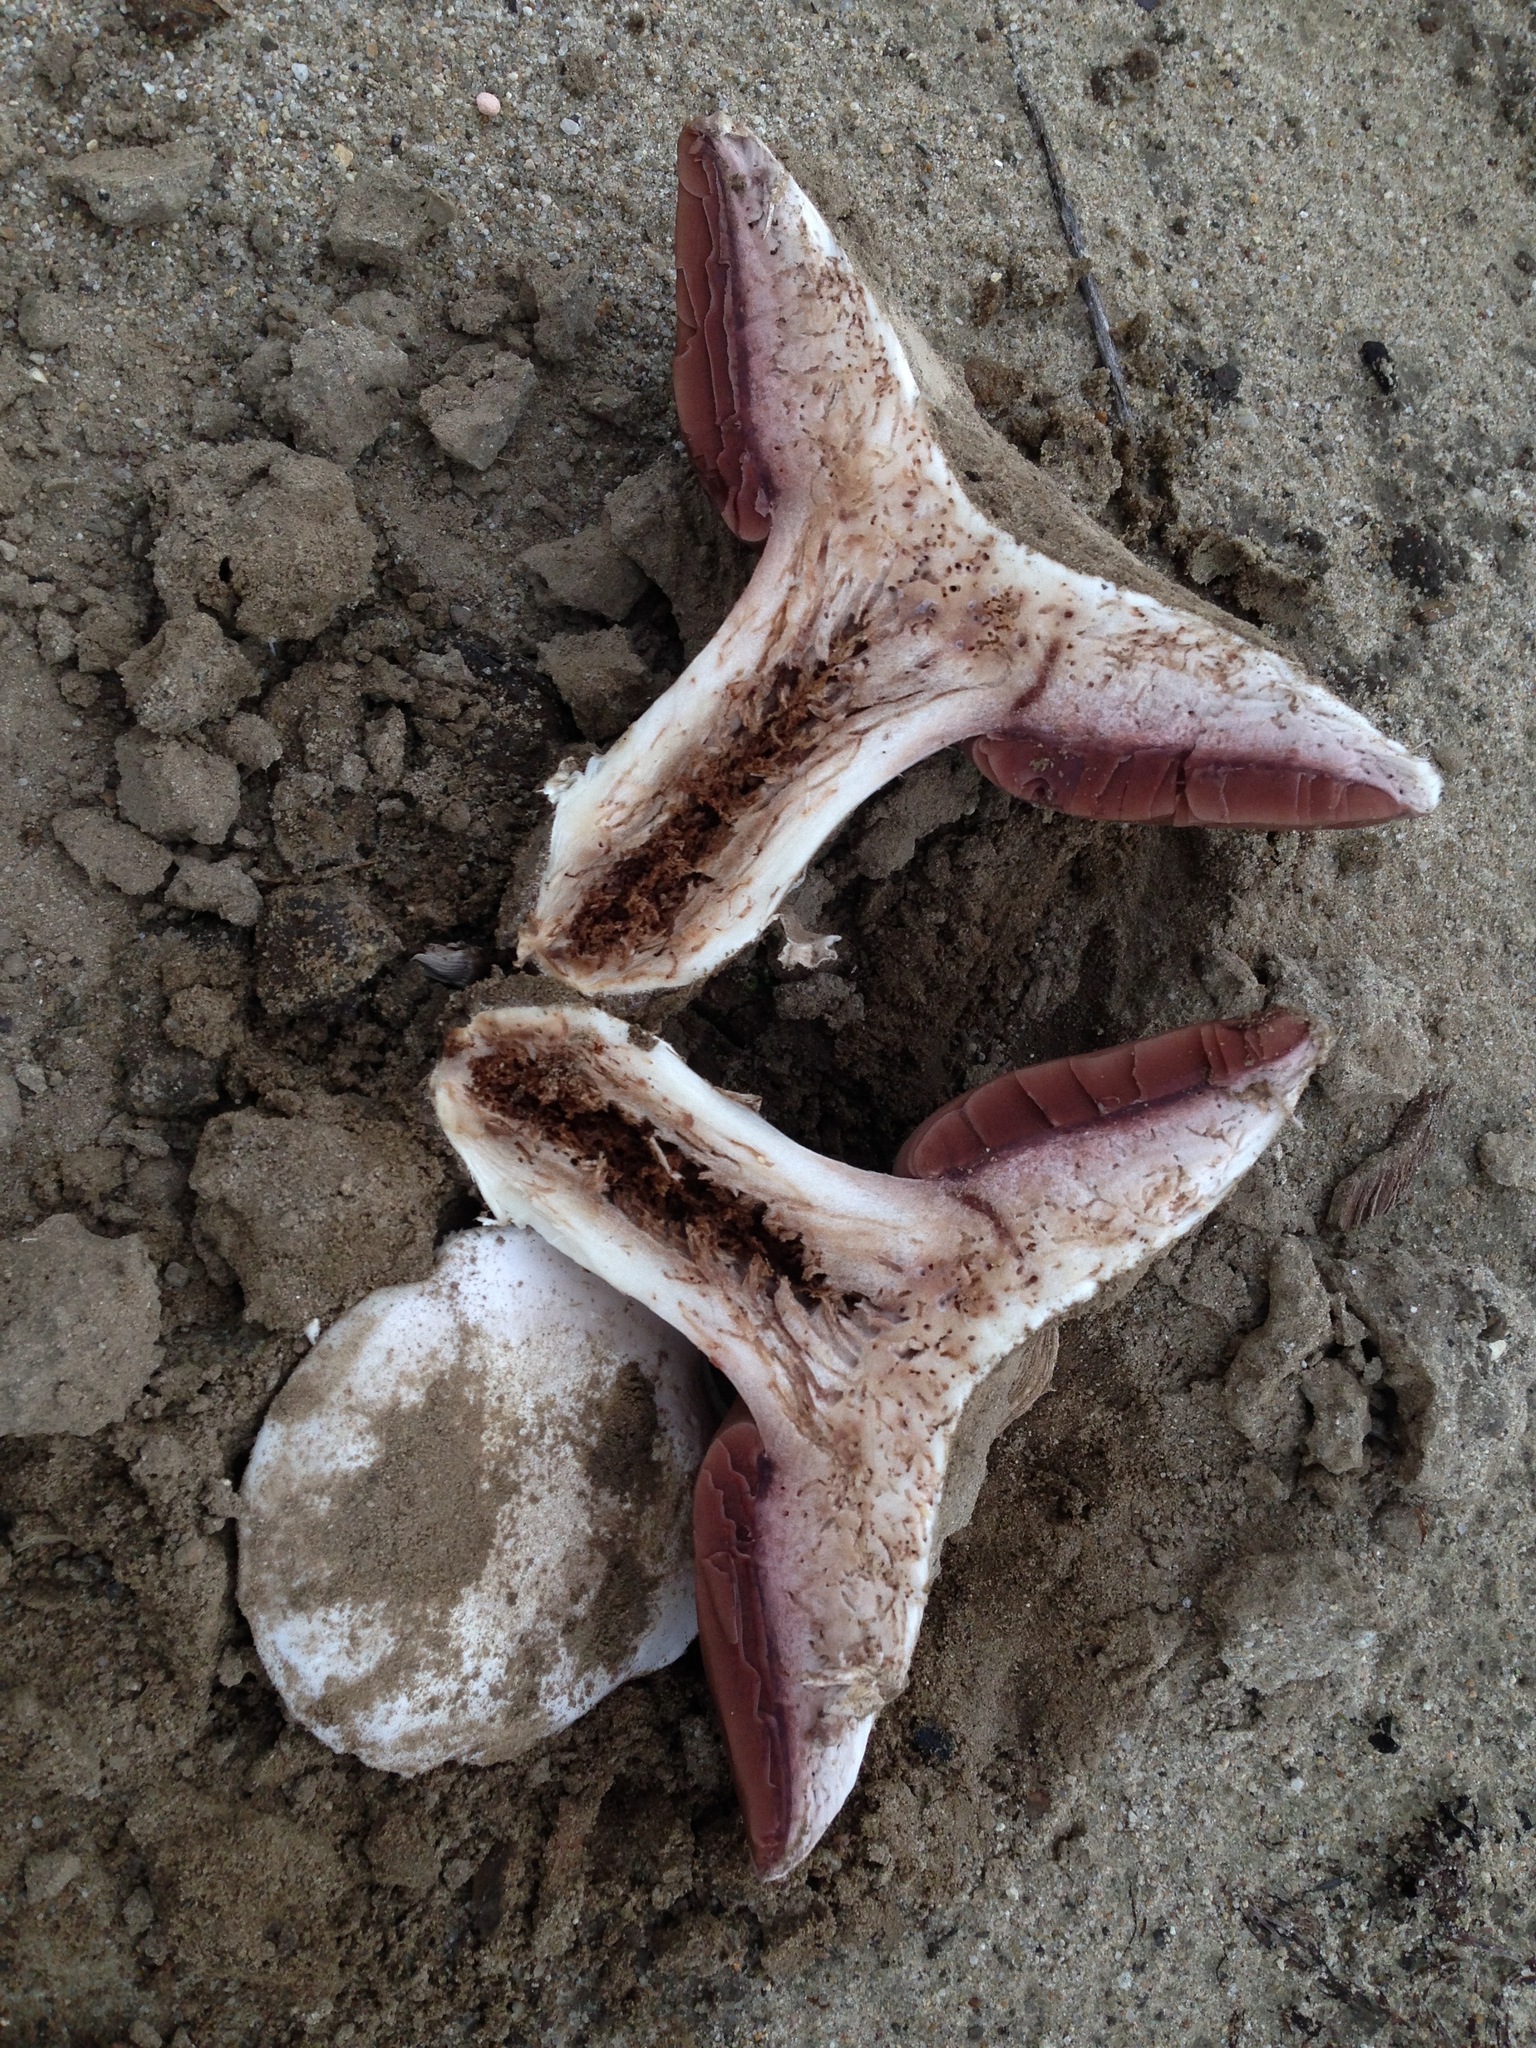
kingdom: Fungi
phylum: Basidiomycota
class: Agaricomycetes
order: Agaricales
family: Agaricaceae
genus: Agaricus
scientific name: Agaricus bitorquis
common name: Pavement mushroom
